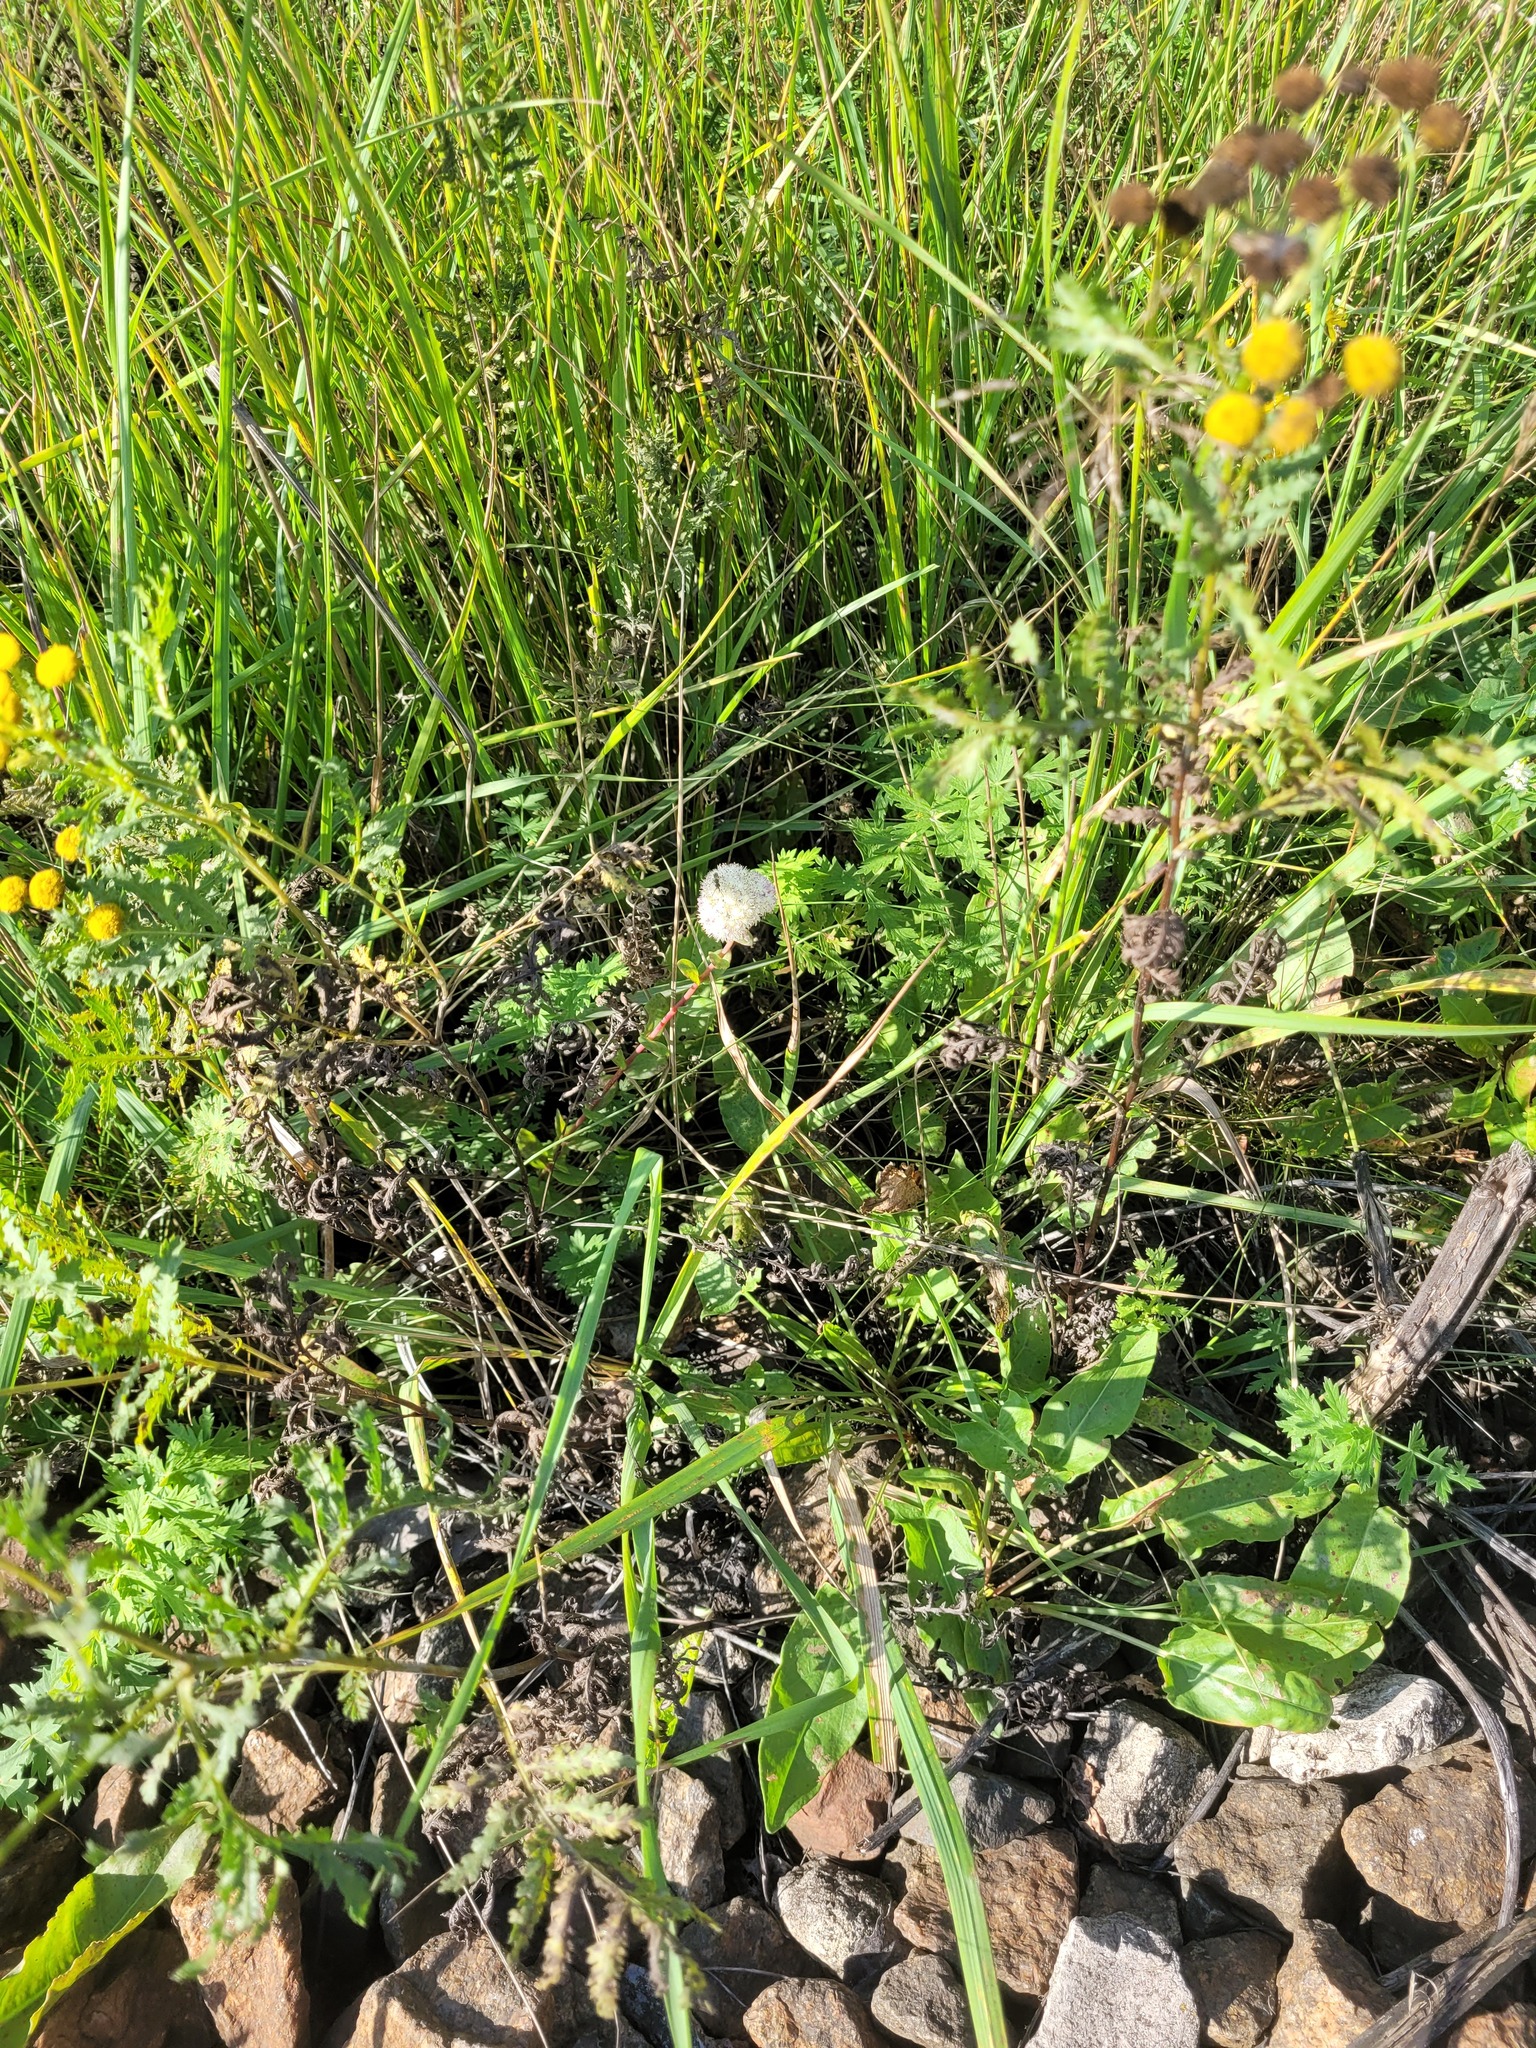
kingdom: Plantae
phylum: Tracheophyta
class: Magnoliopsida
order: Saxifragales
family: Crassulaceae
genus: Hylotelephium
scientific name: Hylotelephium maximum
